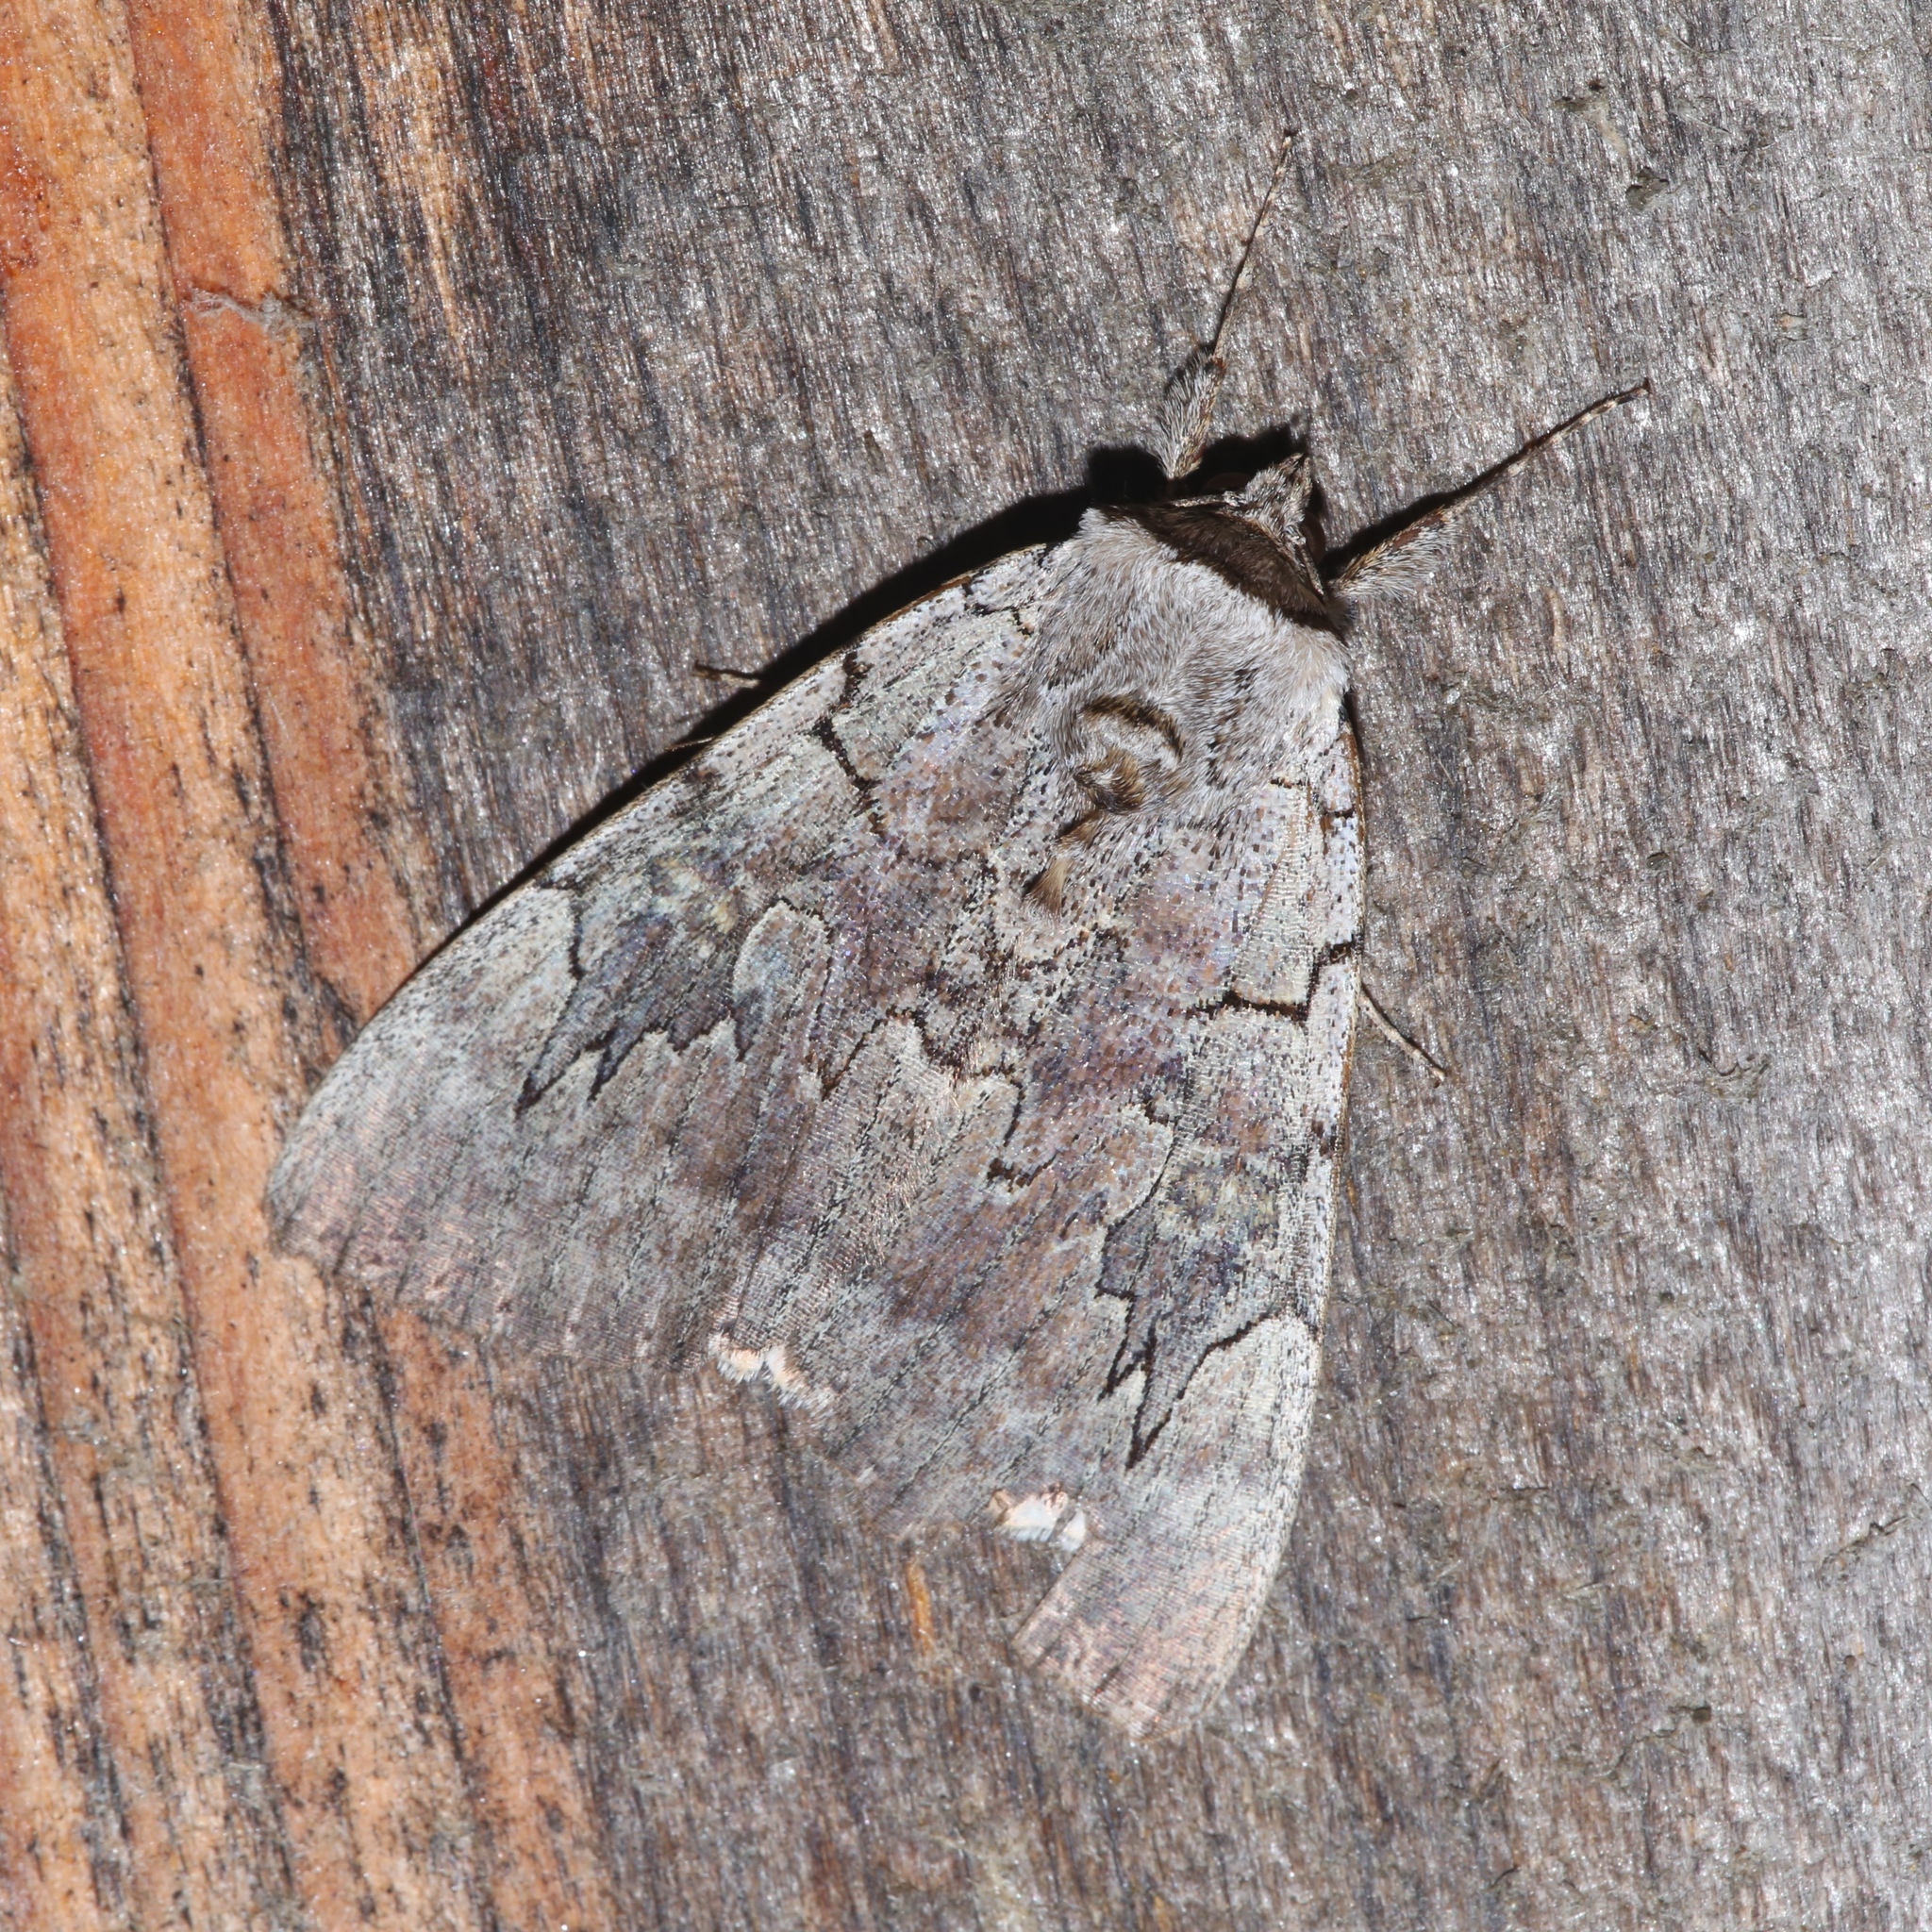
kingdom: Animalia
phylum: Arthropoda
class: Insecta
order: Lepidoptera
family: Erebidae
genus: Catocala
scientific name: Catocala concumbens
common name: Pink underwing
